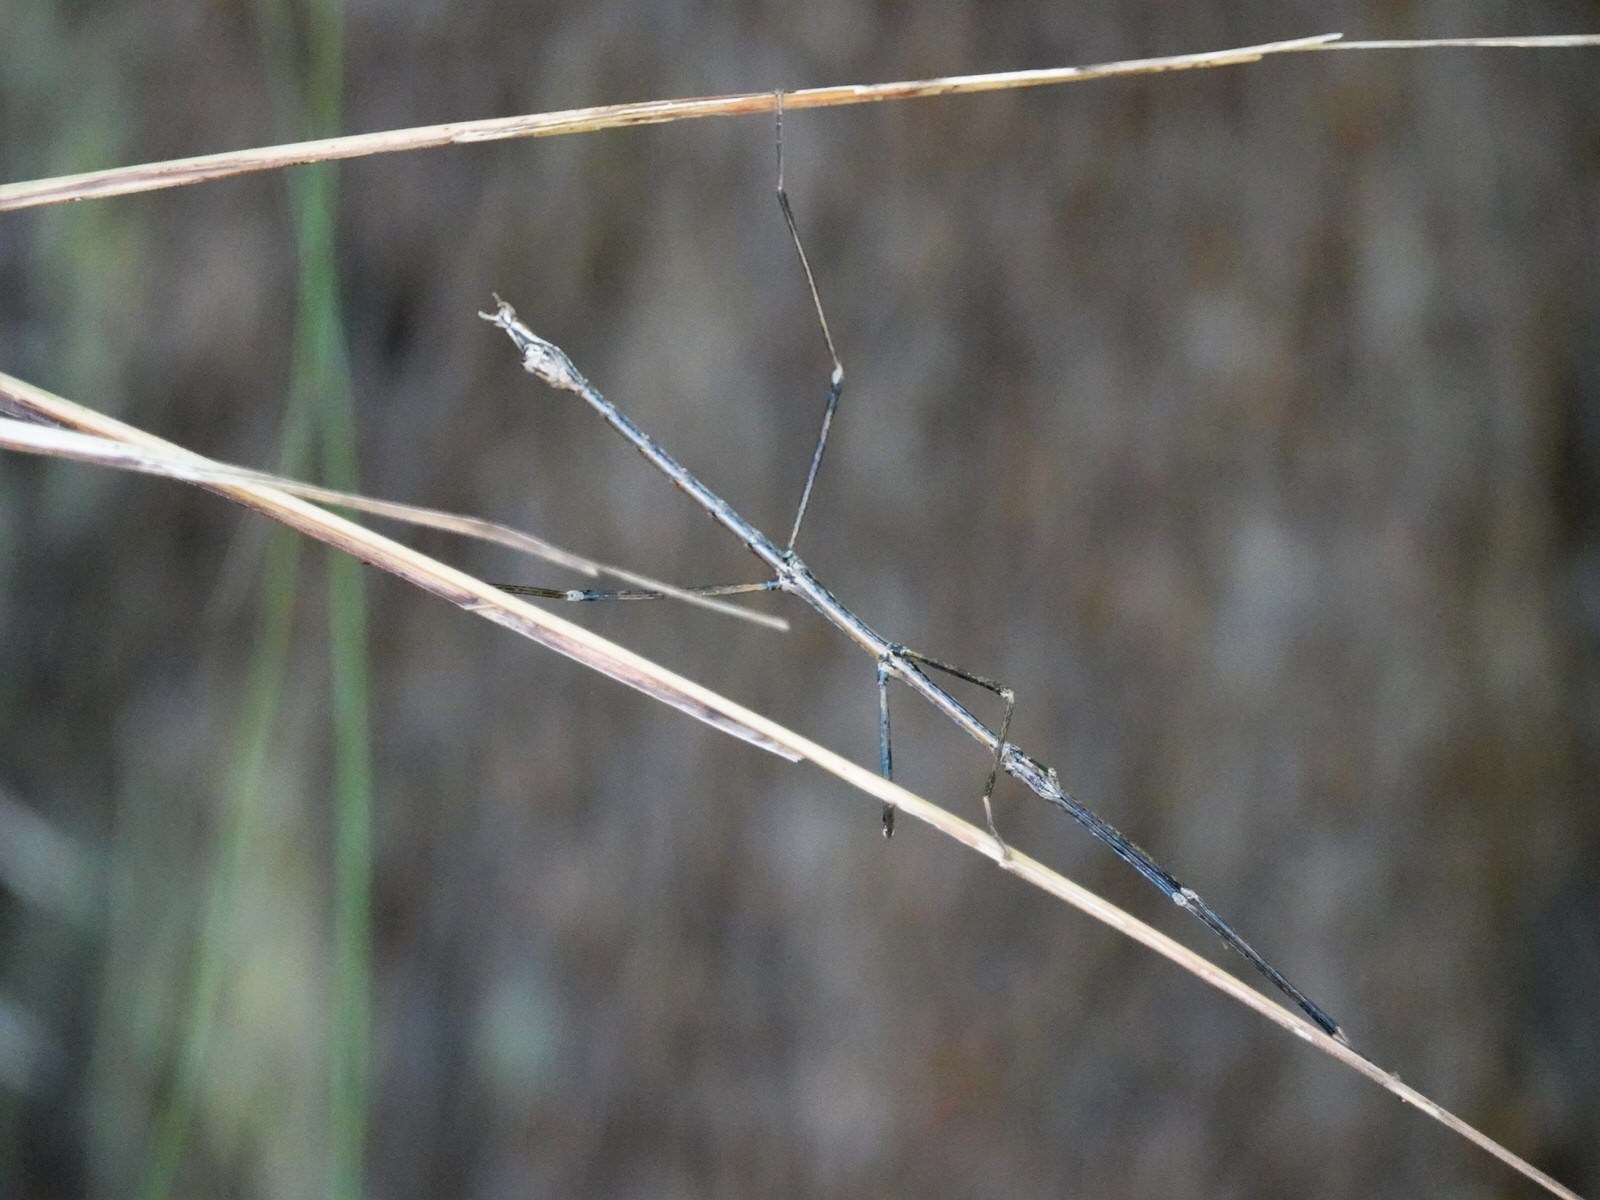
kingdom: Animalia
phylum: Arthropoda
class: Insecta
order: Phasmida
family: Phasmatidae
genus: Clitarchus
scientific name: Clitarchus hookeri
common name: Smooth stick insect
